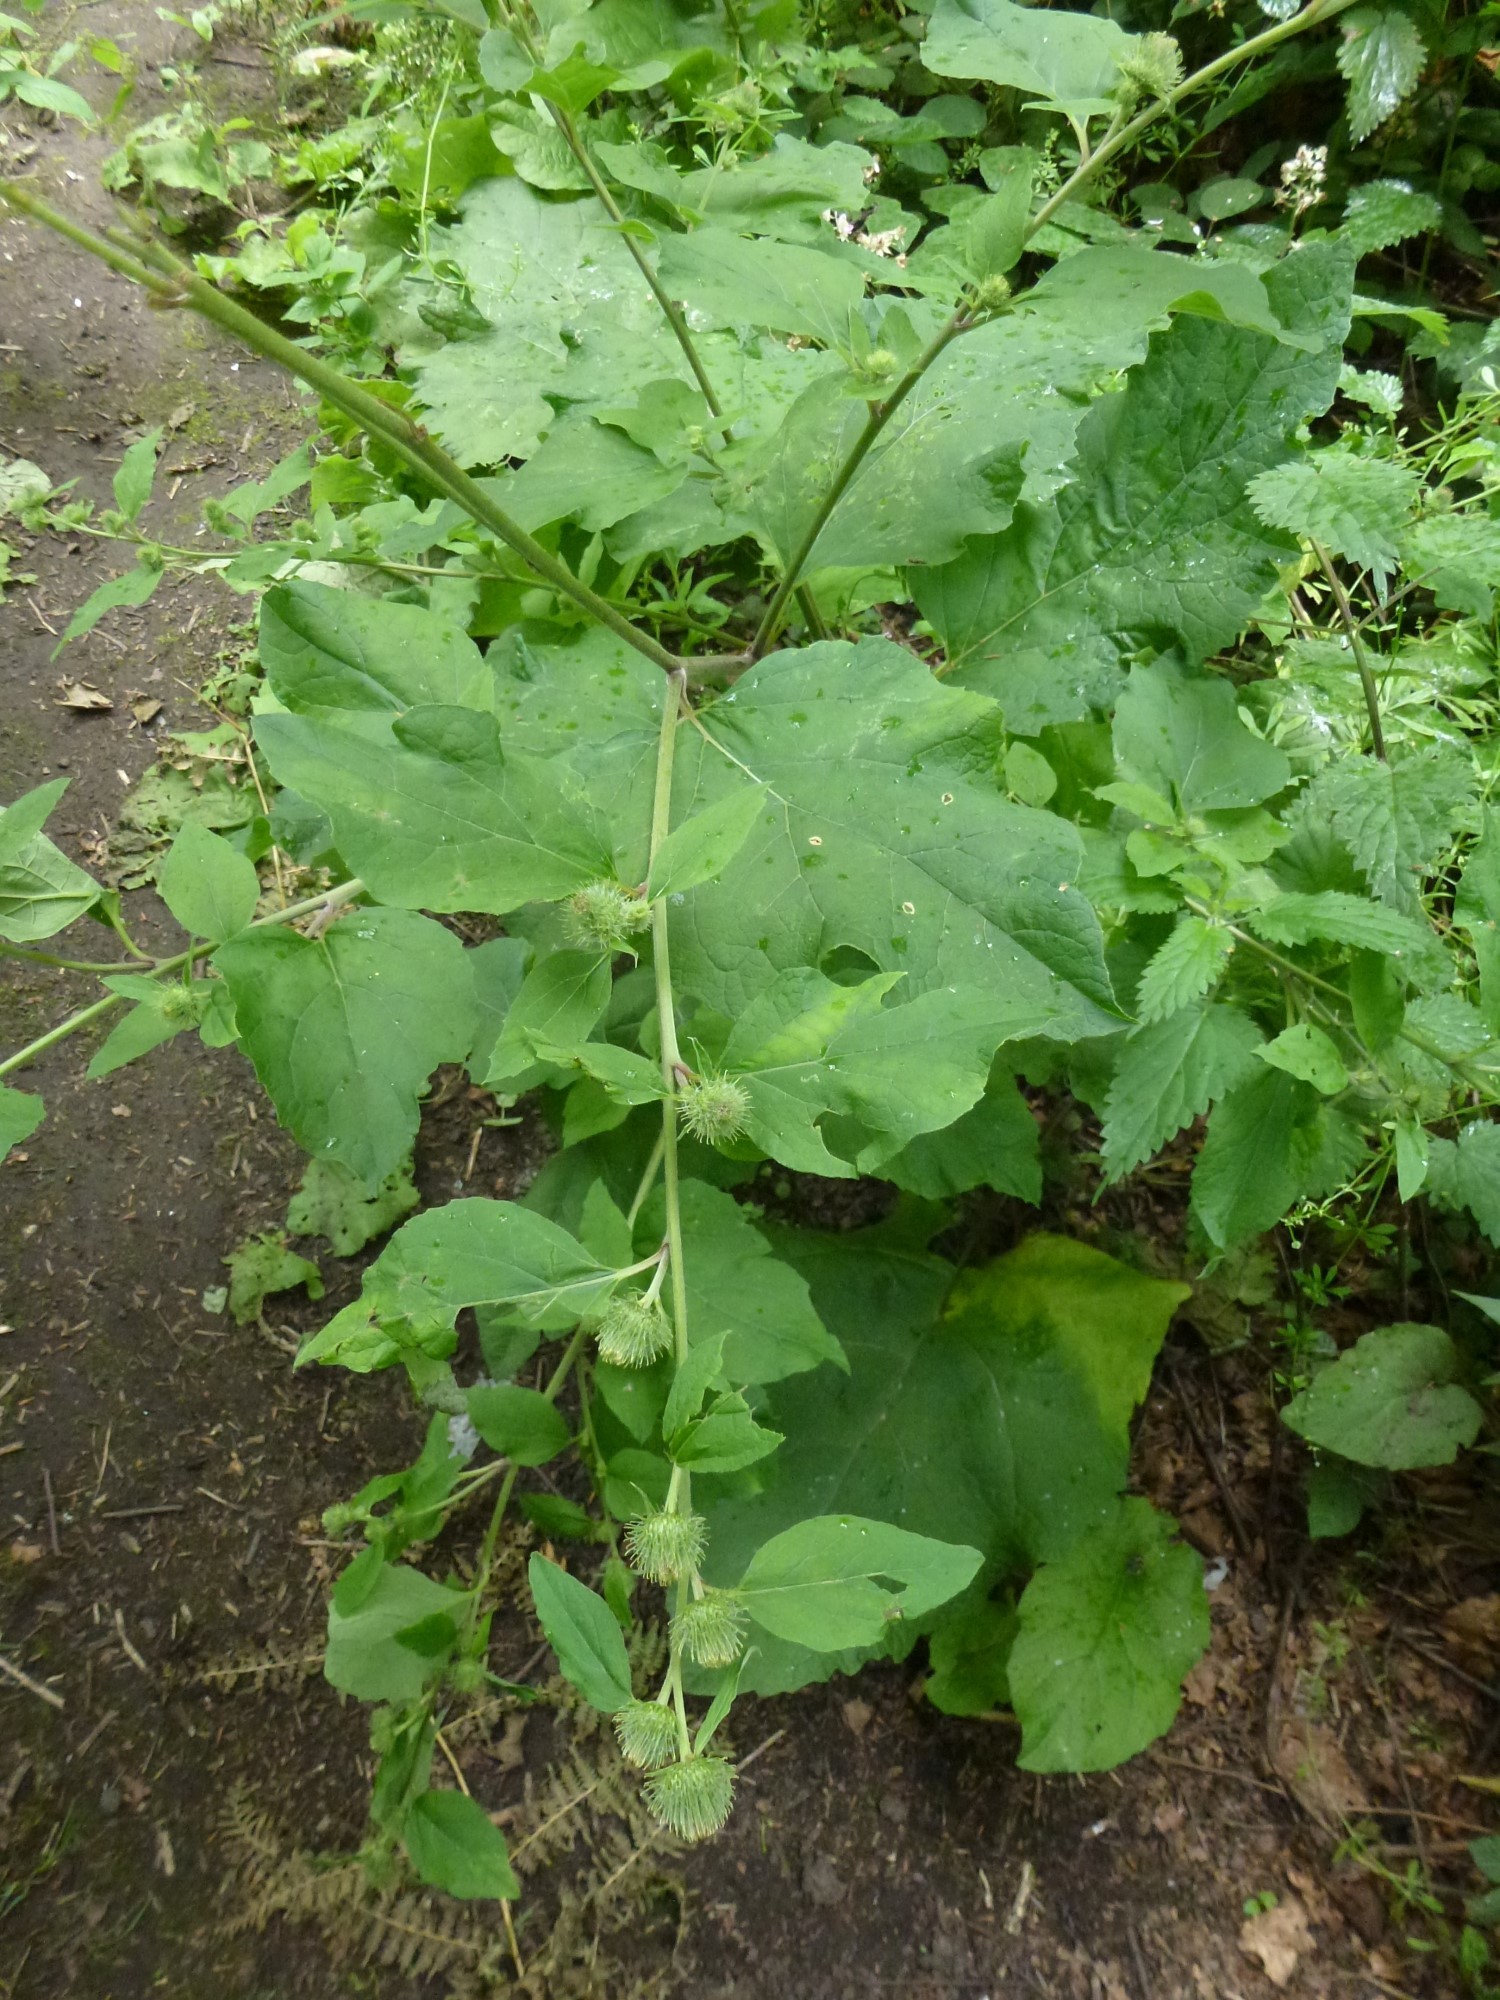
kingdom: Plantae
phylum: Tracheophyta
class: Magnoliopsida
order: Asterales
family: Asteraceae
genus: Arctium
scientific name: Arctium minus
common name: Lesser burdock
